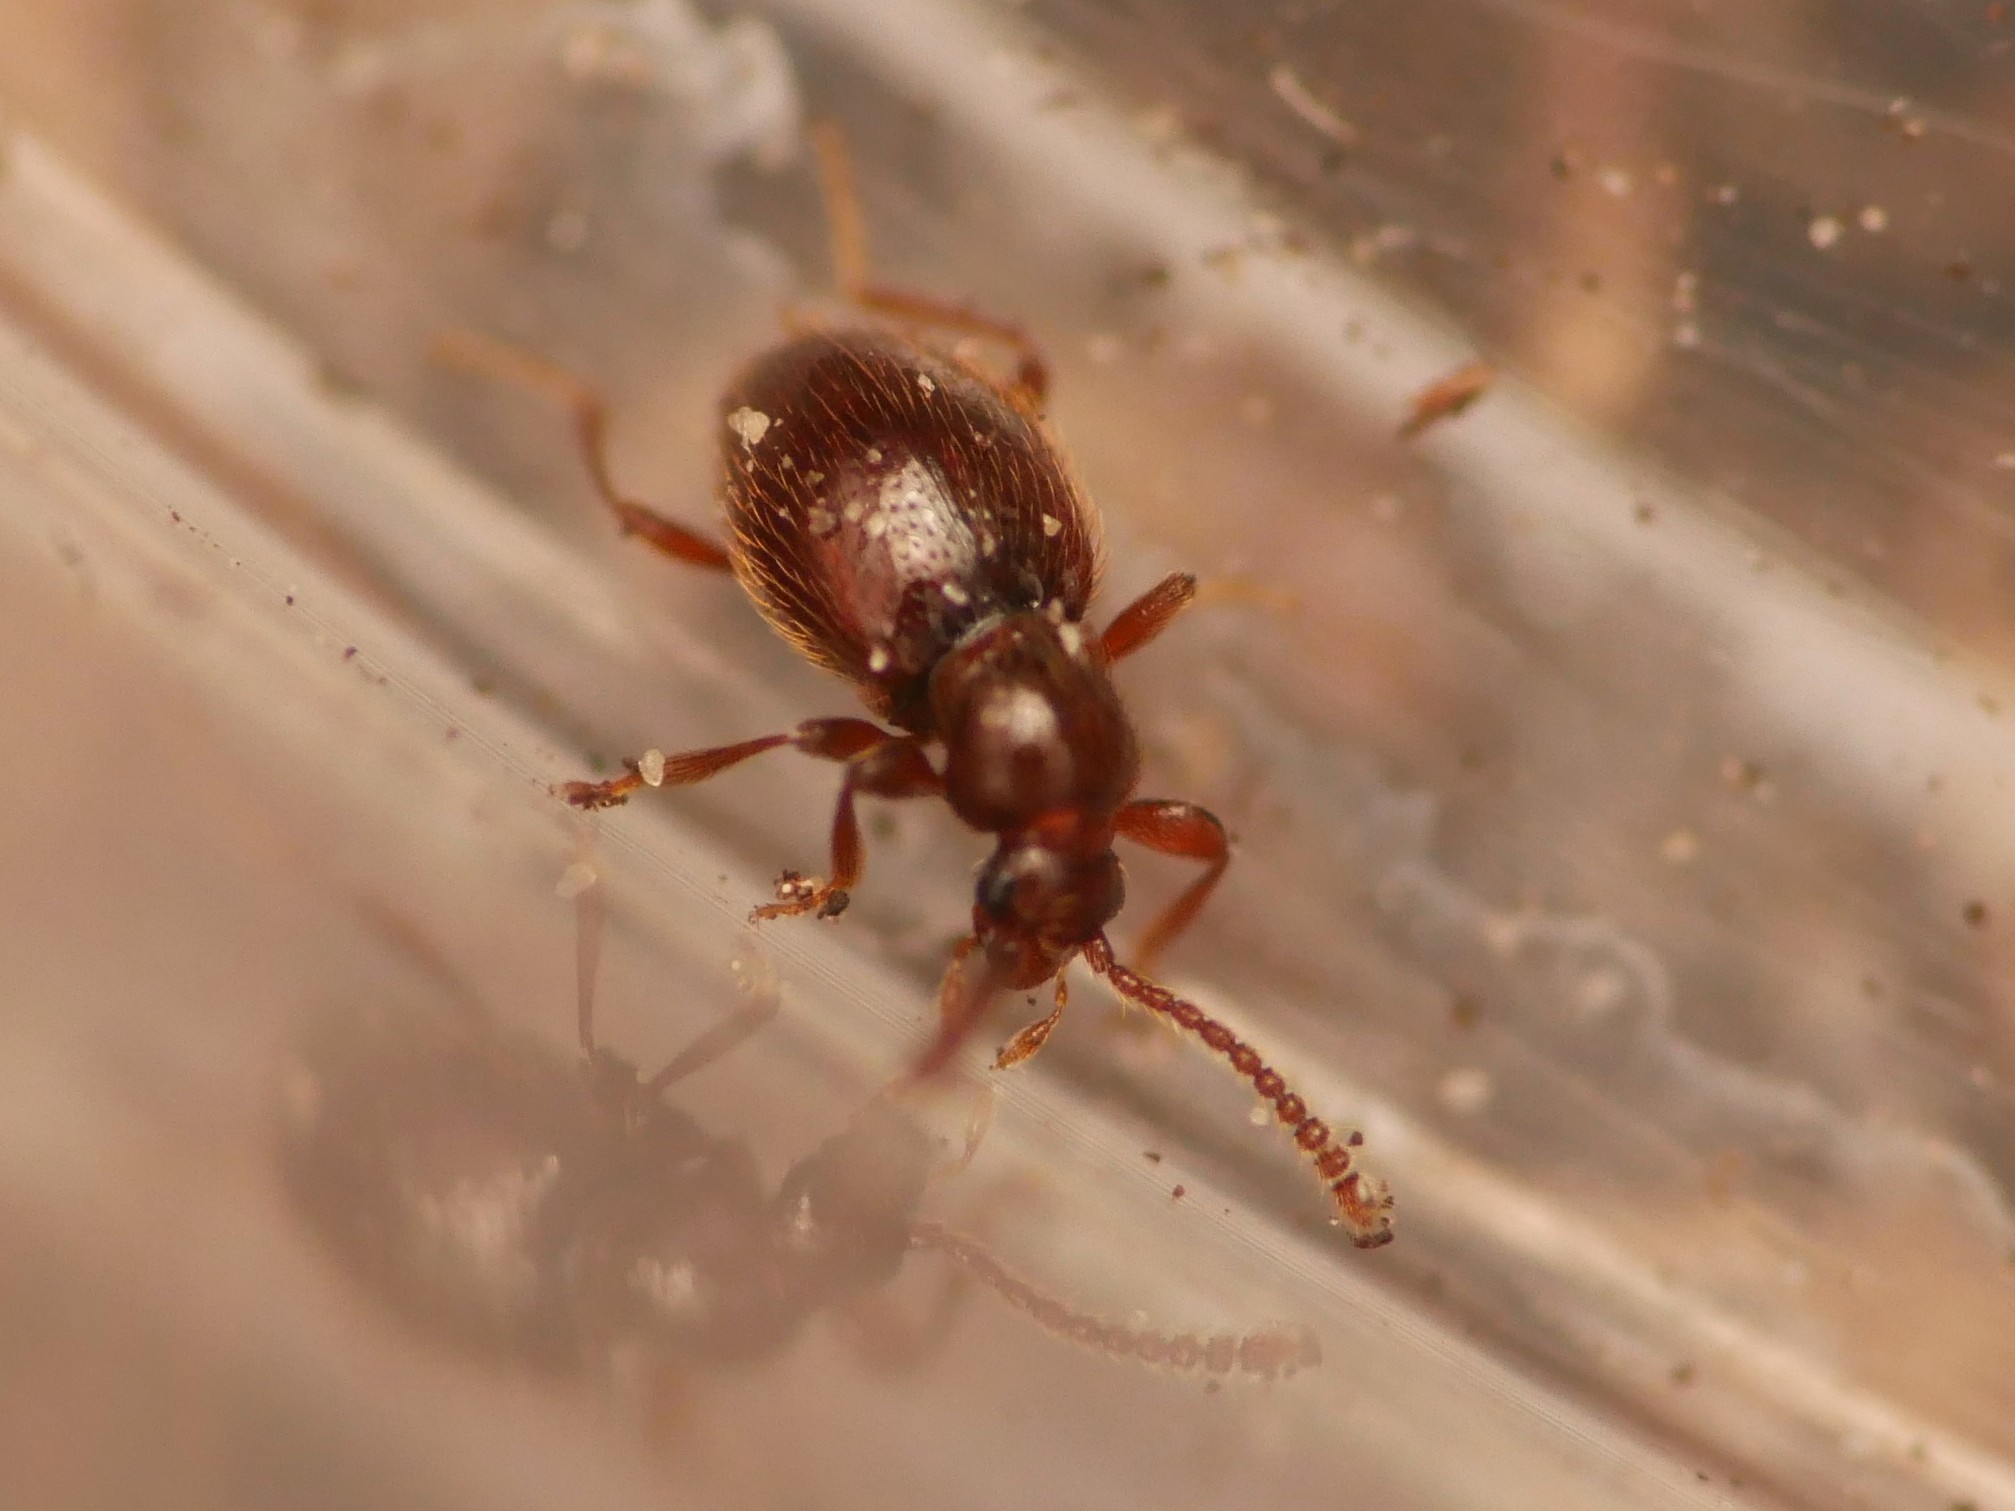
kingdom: Animalia
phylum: Arthropoda
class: Insecta
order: Coleoptera
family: Staphylinidae
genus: Stenichnus
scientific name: Stenichnus godarti
